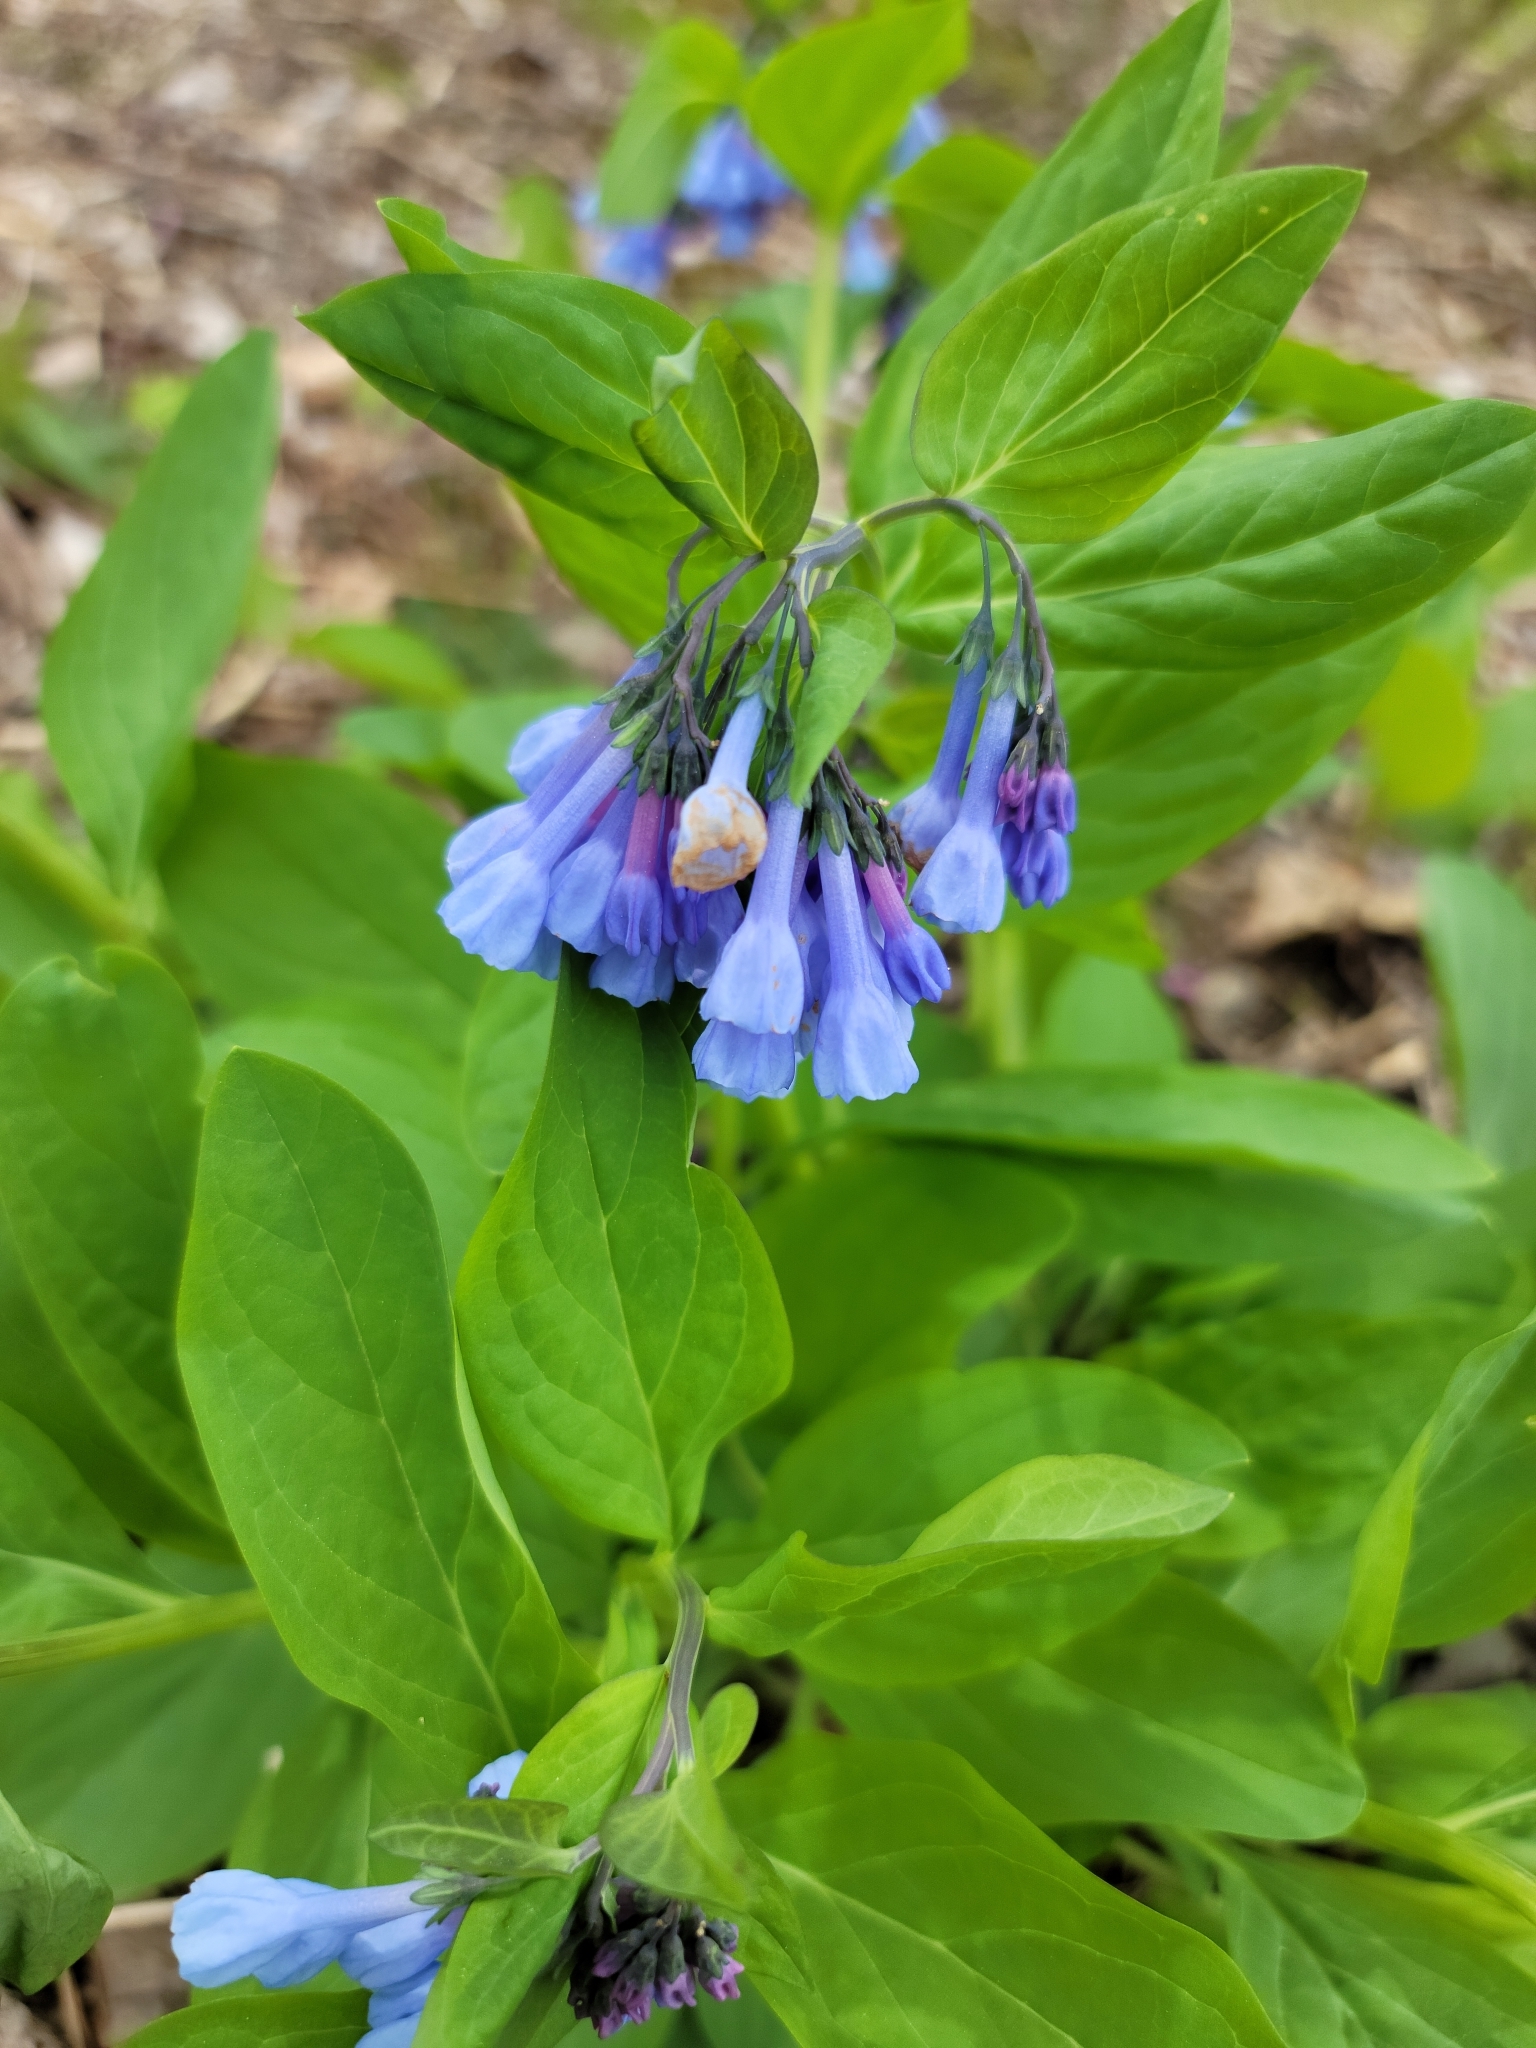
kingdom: Plantae
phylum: Tracheophyta
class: Magnoliopsida
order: Boraginales
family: Boraginaceae
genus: Mertensia
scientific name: Mertensia virginica
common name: Virginia bluebells
